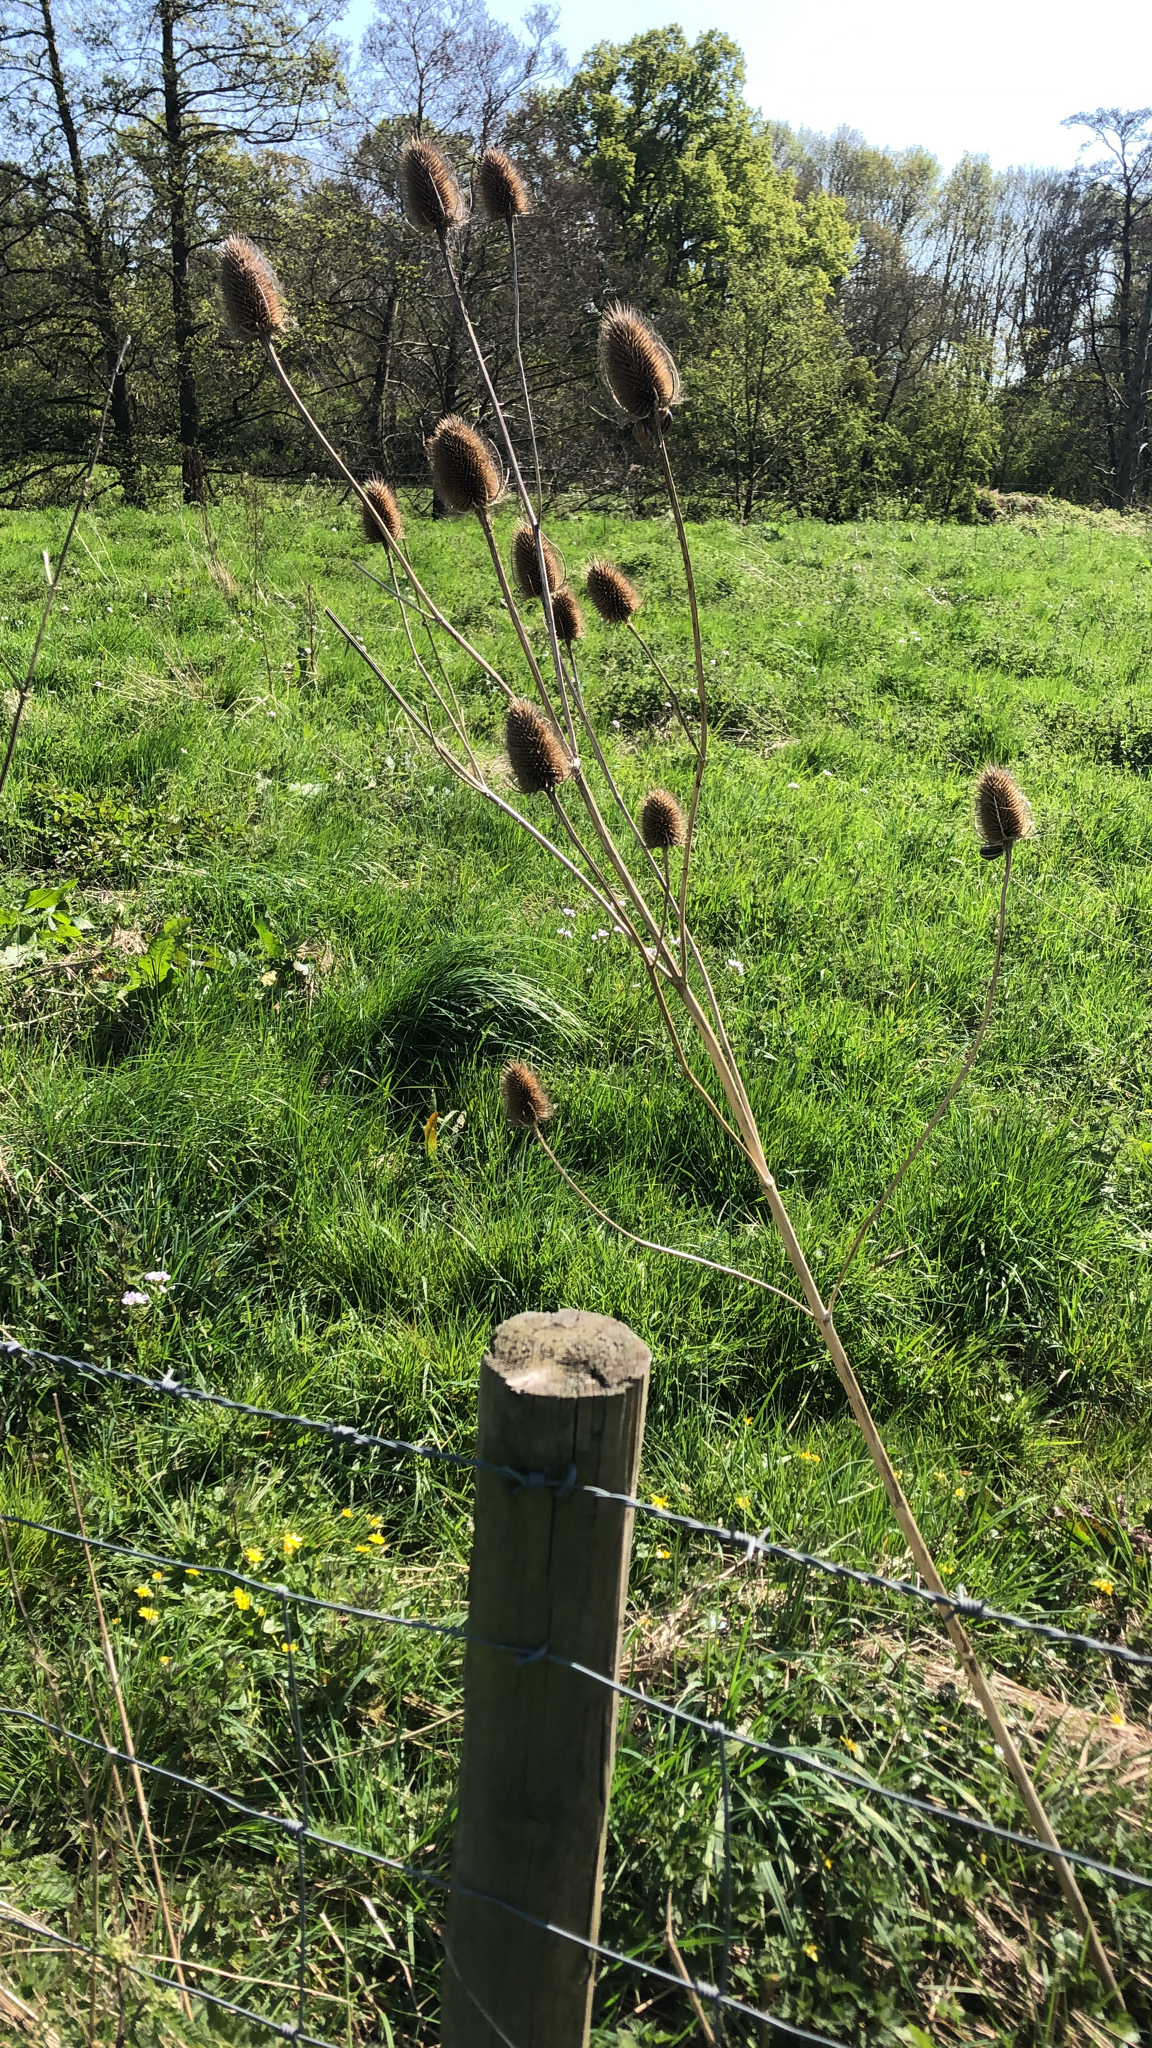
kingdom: Plantae
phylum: Tracheophyta
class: Magnoliopsida
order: Dipsacales
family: Caprifoliaceae
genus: Dipsacus
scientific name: Dipsacus fullonum
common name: Teasel
